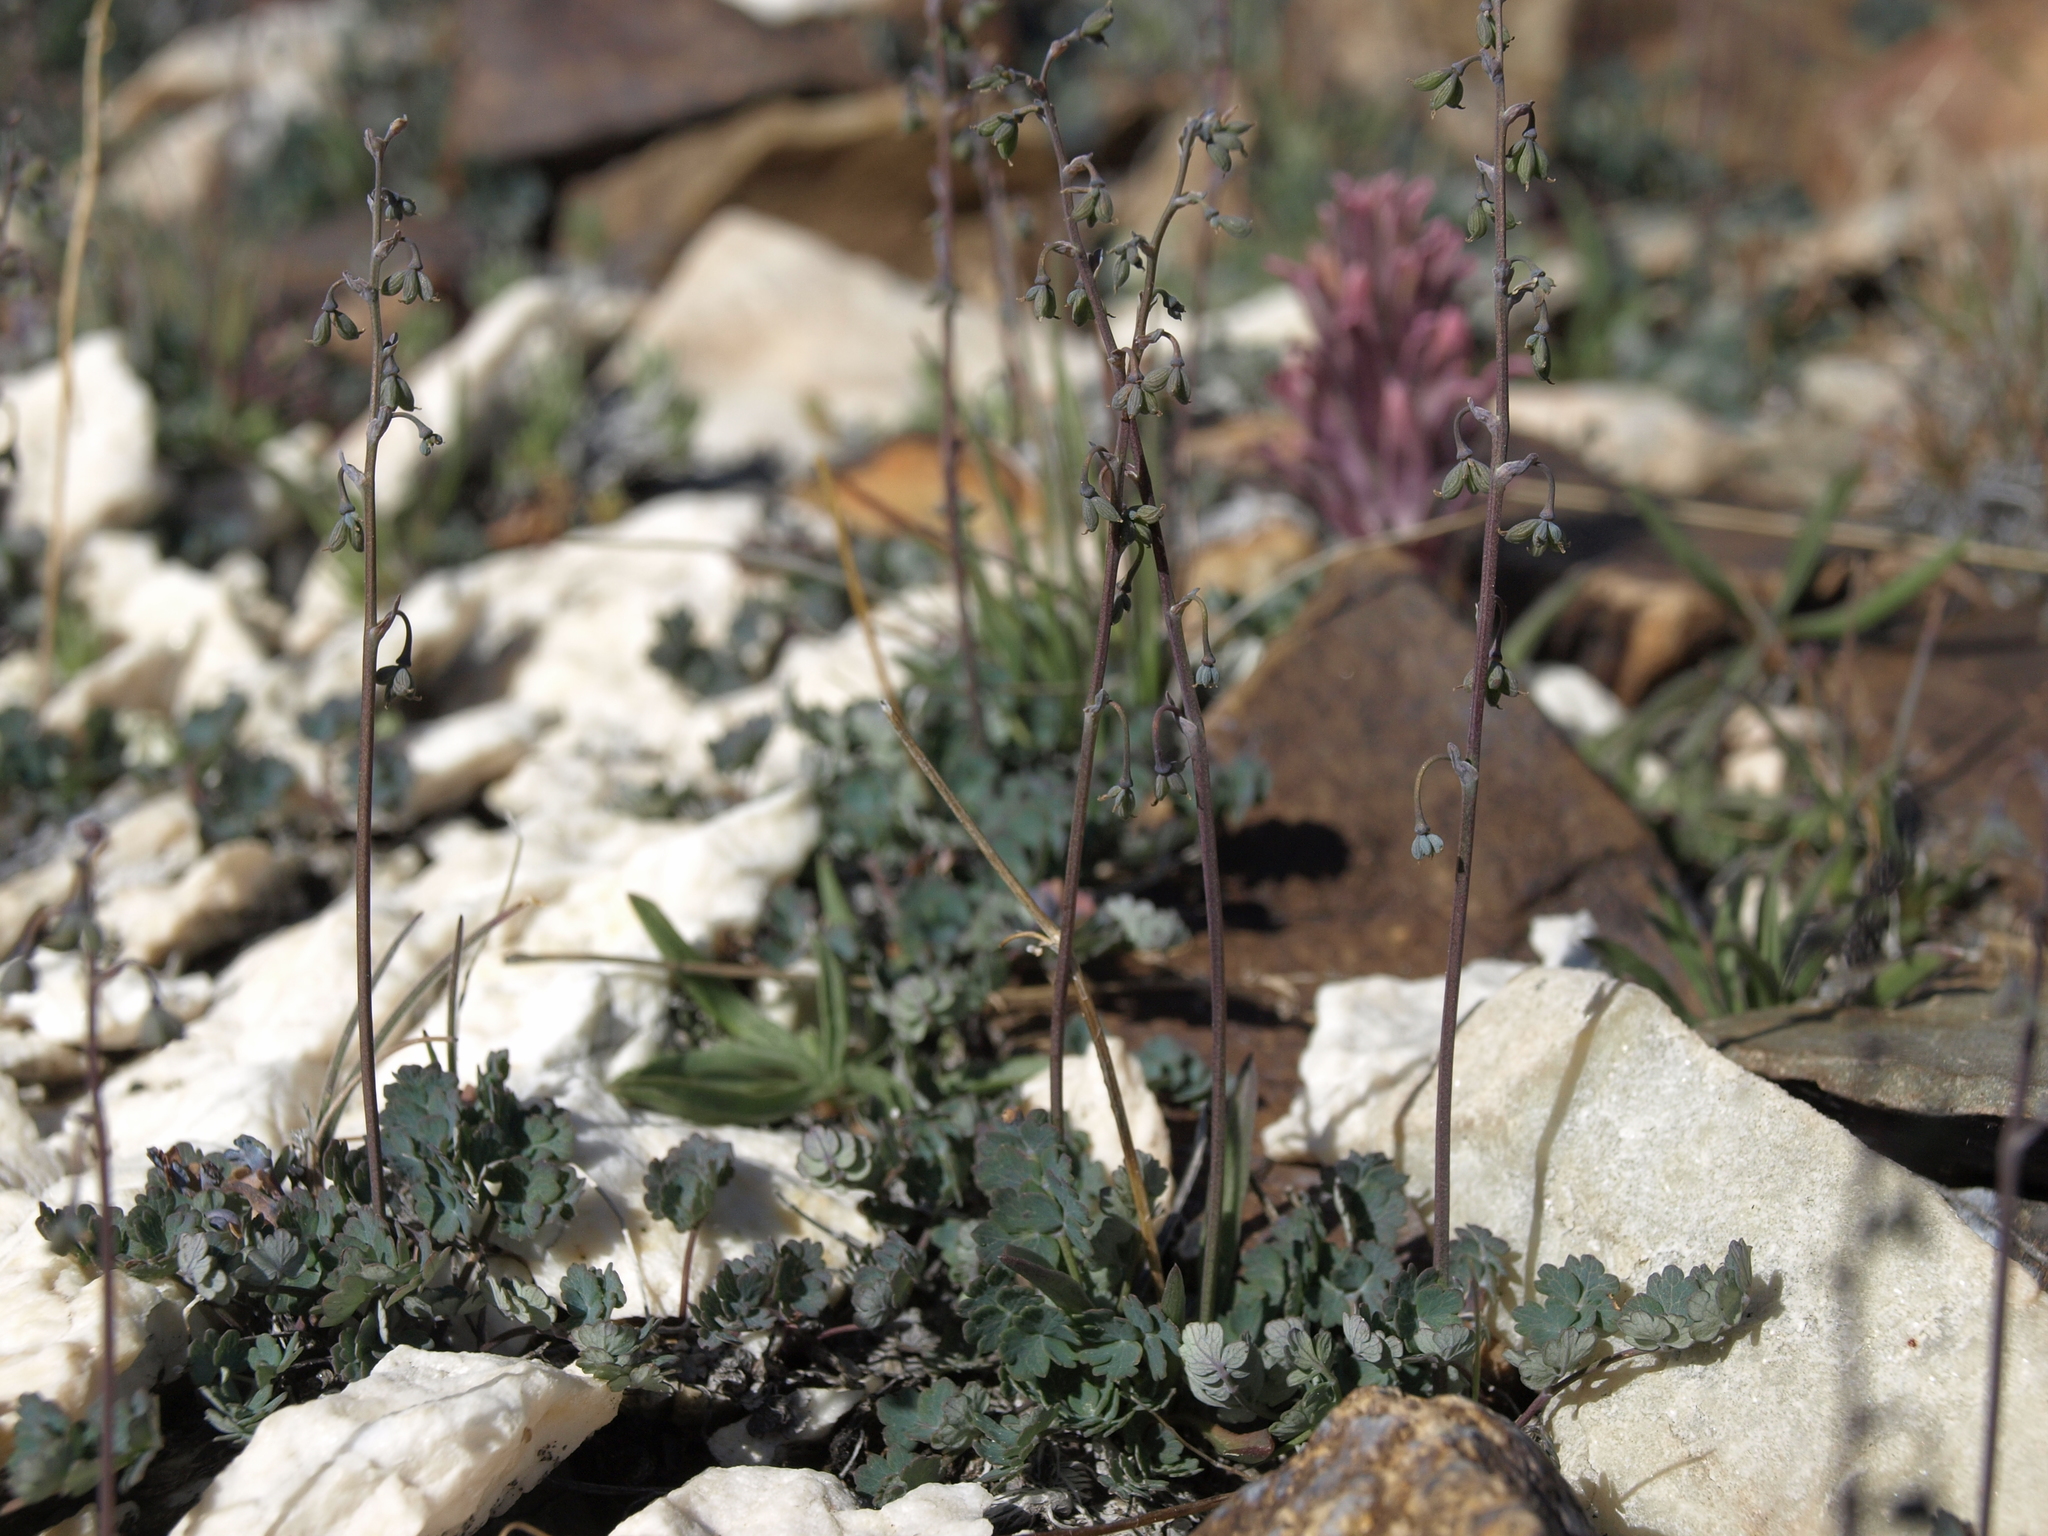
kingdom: Plantae
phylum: Tracheophyta
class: Magnoliopsida
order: Ranunculales
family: Ranunculaceae
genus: Thalictrum
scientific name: Thalictrum alpinum
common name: Alpine meadow-rue
